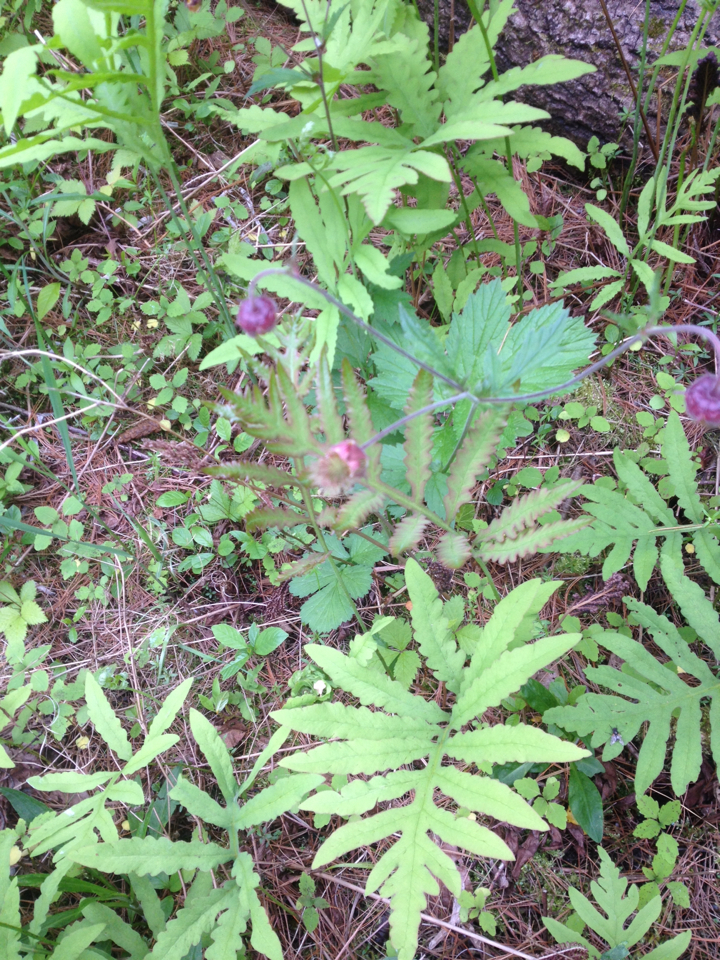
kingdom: Plantae
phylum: Tracheophyta
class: Magnoliopsida
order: Rosales
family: Rosaceae
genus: Geum
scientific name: Geum rivale
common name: Water avens
